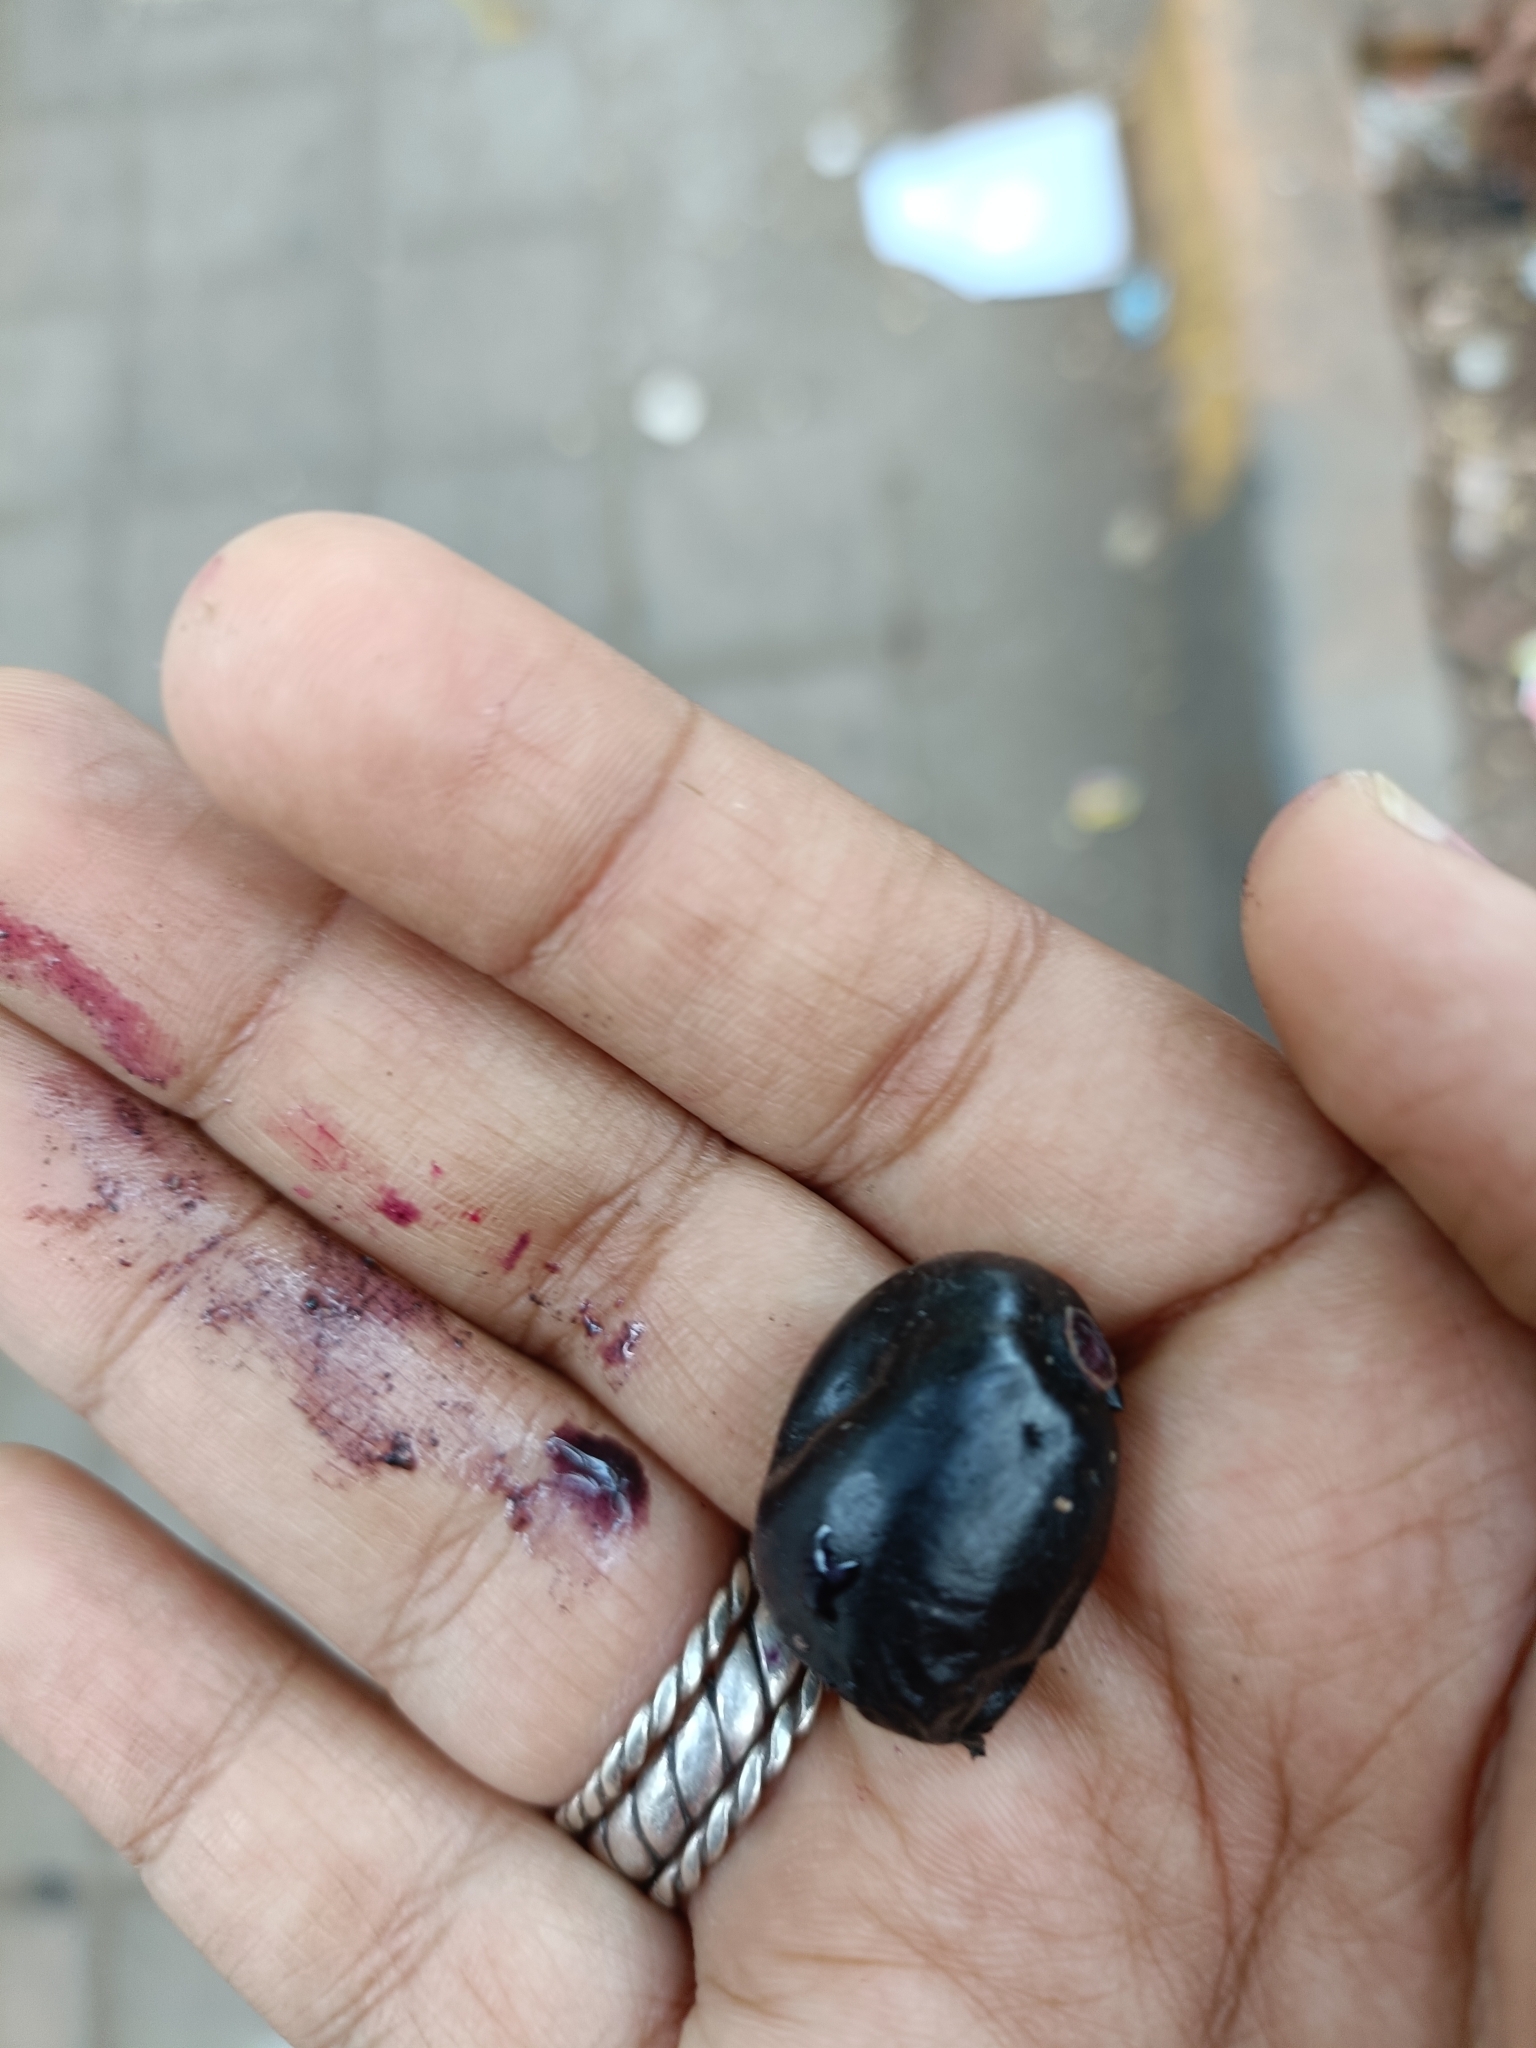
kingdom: Plantae
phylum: Tracheophyta
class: Magnoliopsida
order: Myrtales
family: Myrtaceae
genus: Syzygium
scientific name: Syzygium cumini
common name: Java plum
